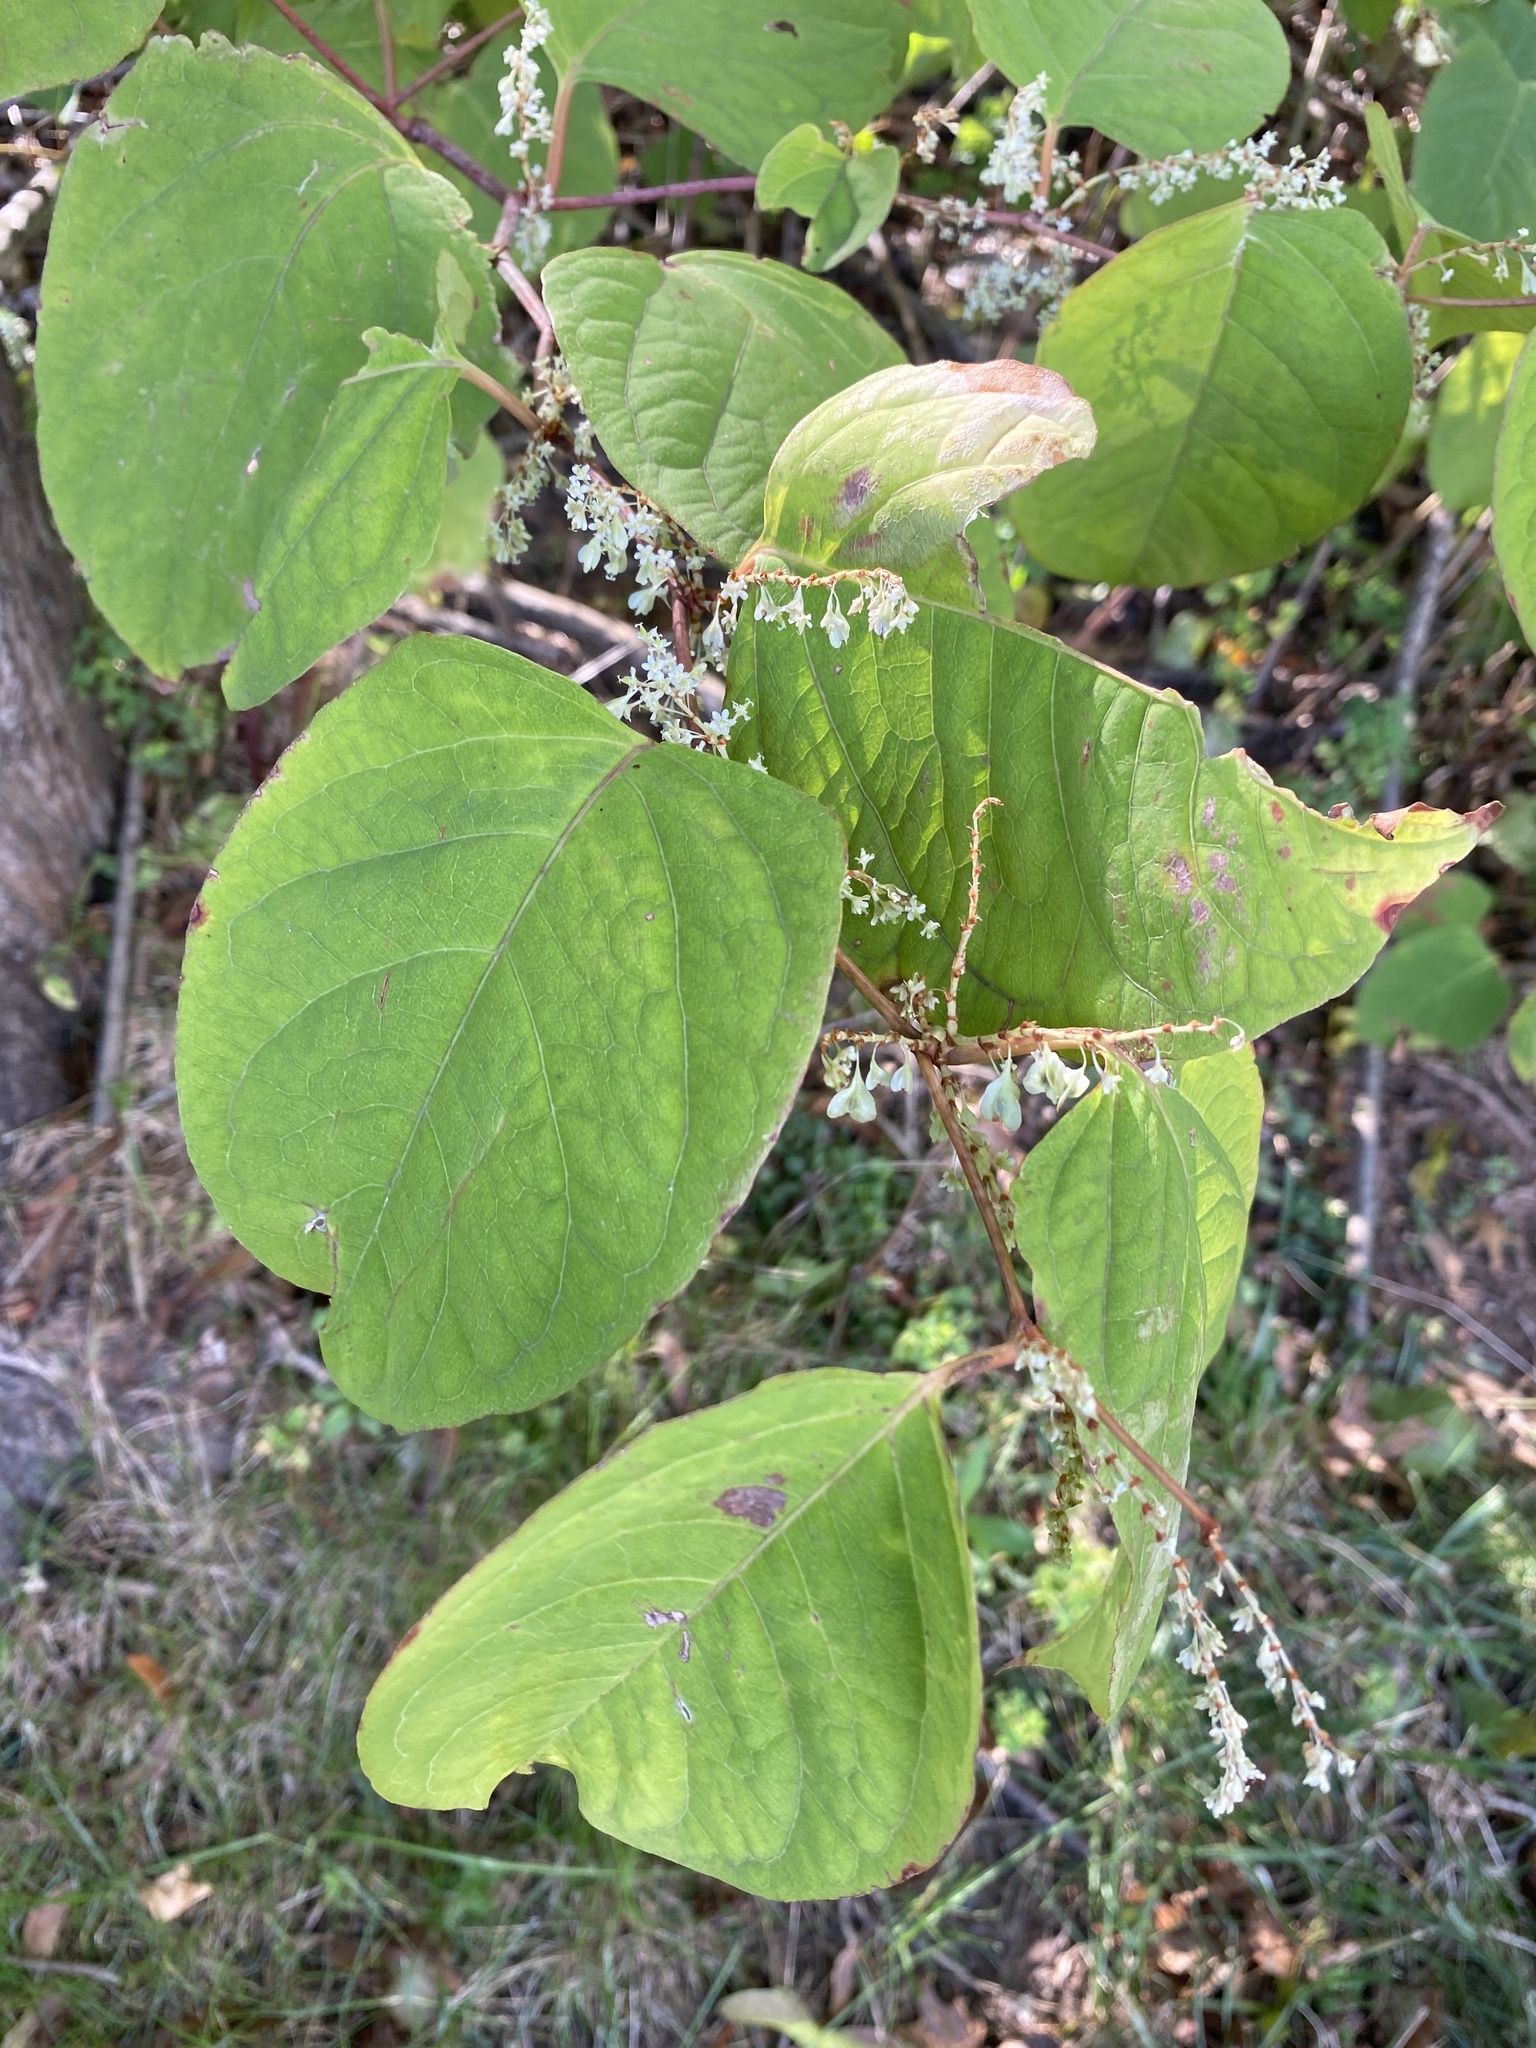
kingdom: Plantae
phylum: Tracheophyta
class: Magnoliopsida
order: Caryophyllales
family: Polygonaceae
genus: Reynoutria
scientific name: Reynoutria japonica
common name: Japanese knotweed
